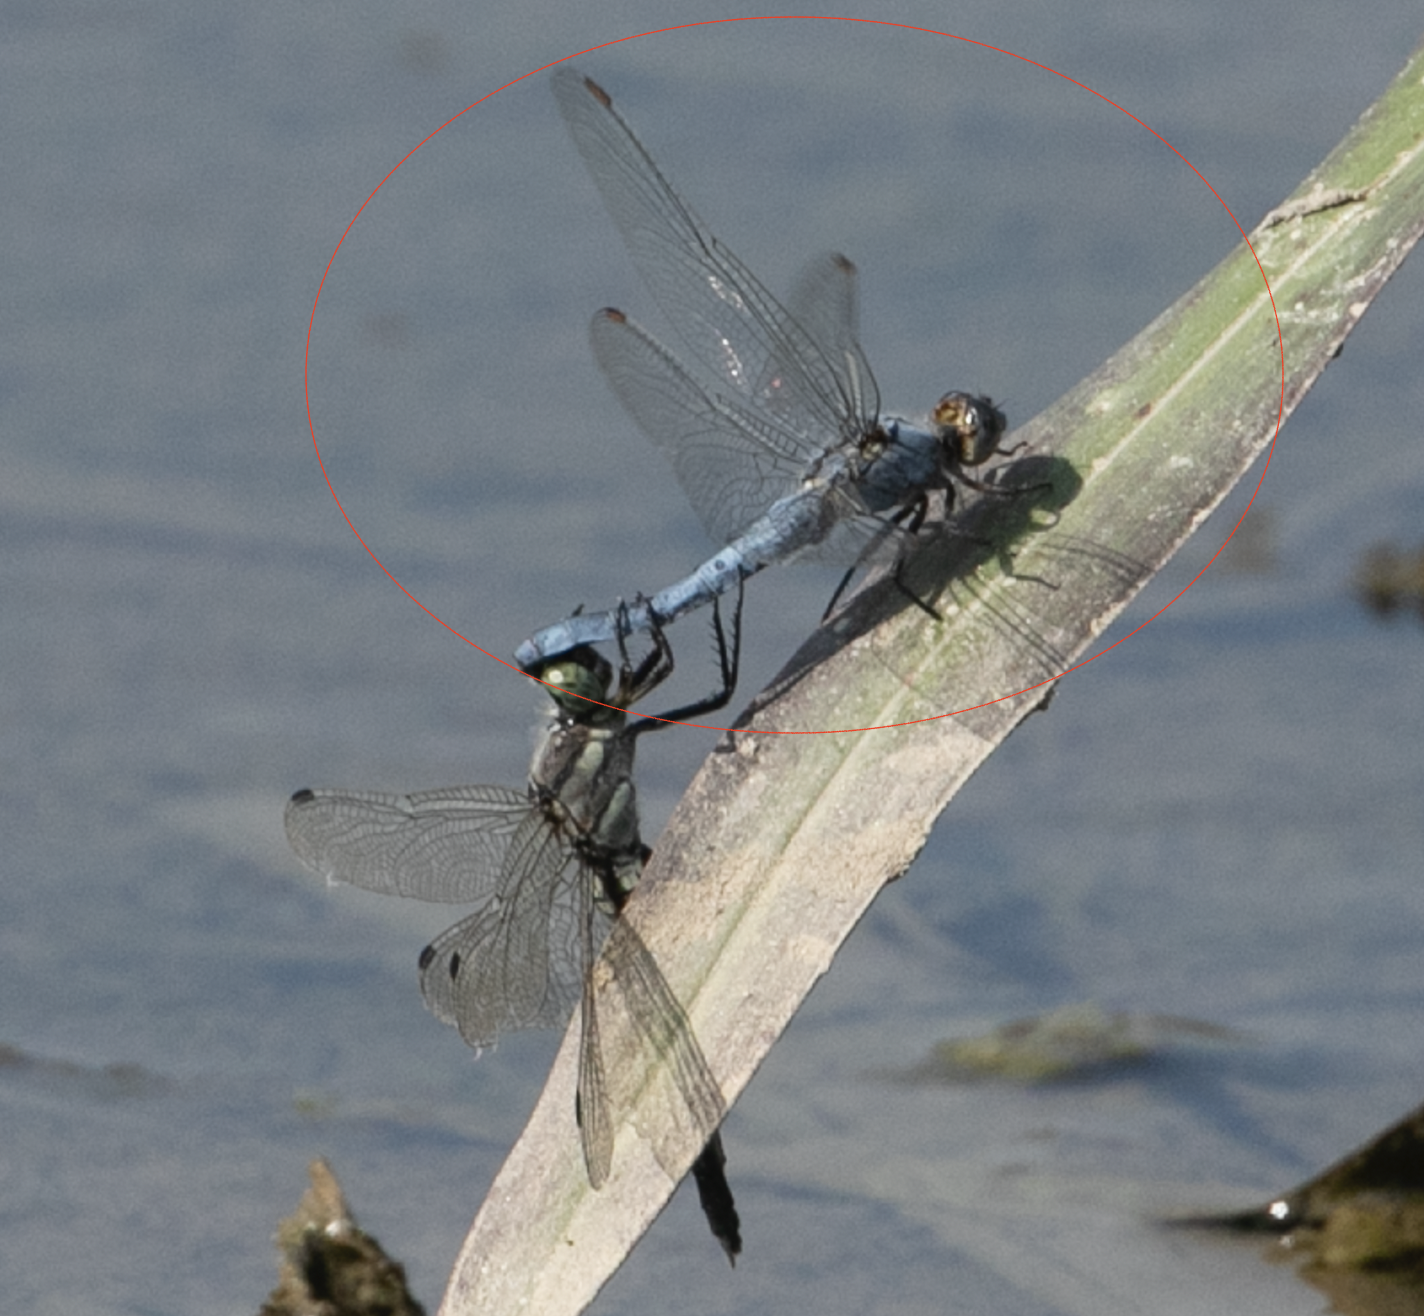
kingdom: Animalia
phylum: Arthropoda
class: Insecta
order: Odonata
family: Libellulidae
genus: Orthetrum
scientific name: Orthetrum brunneum
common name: Southern skimmer
